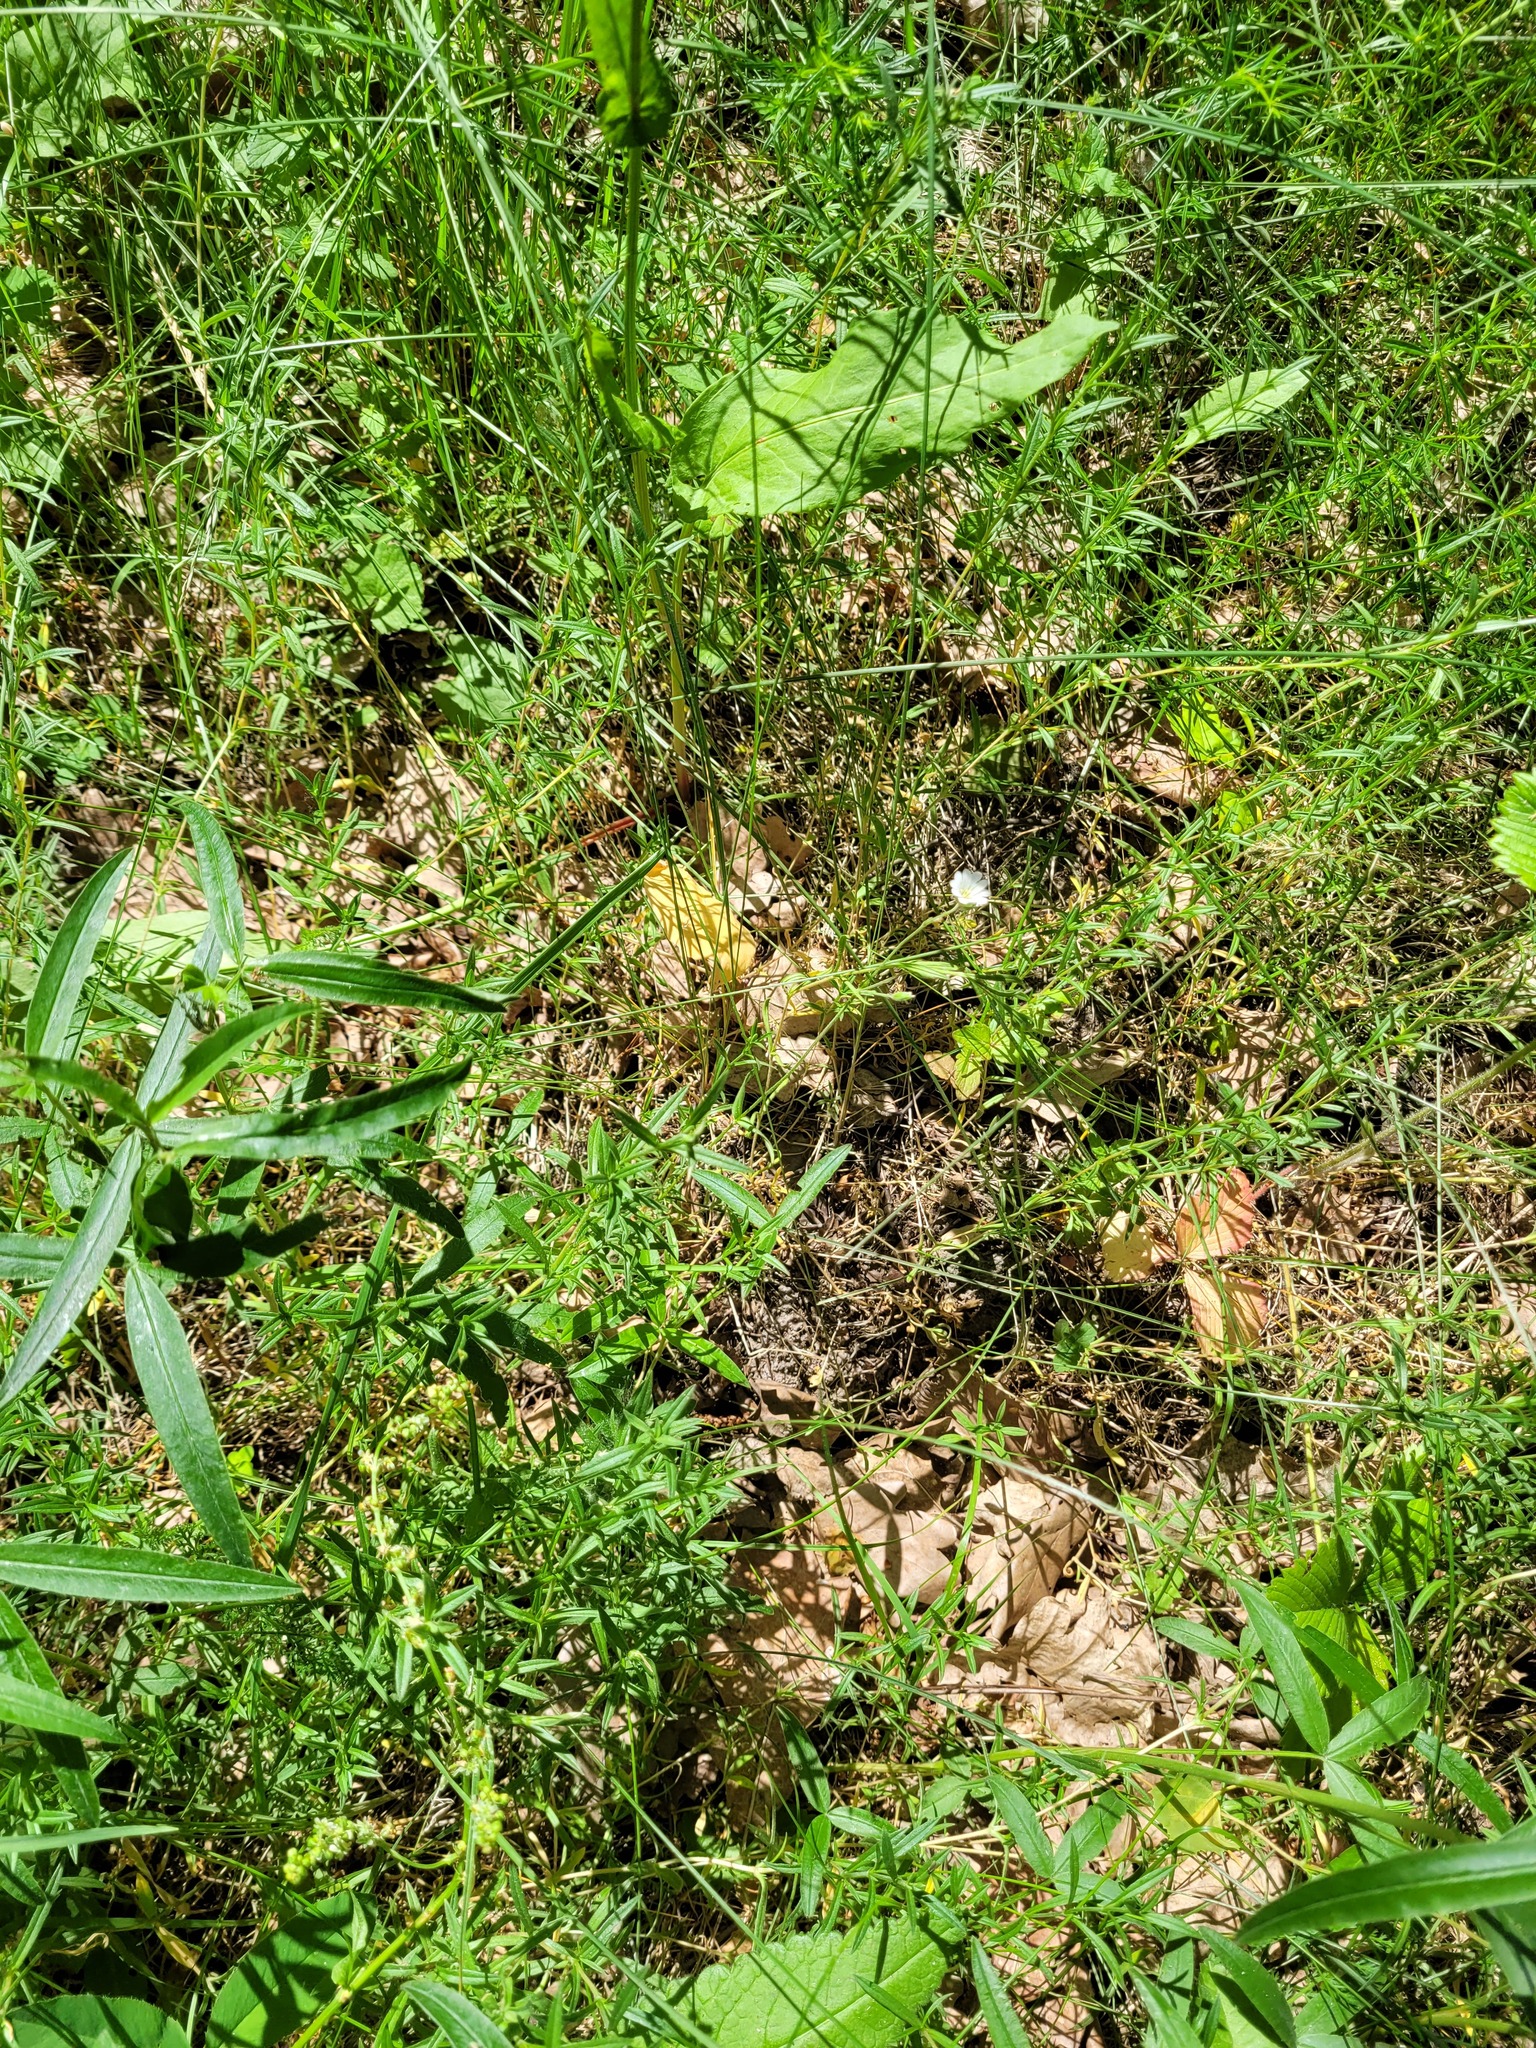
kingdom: Plantae
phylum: Tracheophyta
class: Magnoliopsida
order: Caryophyllales
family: Caryophyllaceae
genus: Cerastium
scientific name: Cerastium arvense
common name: Field mouse-ear
